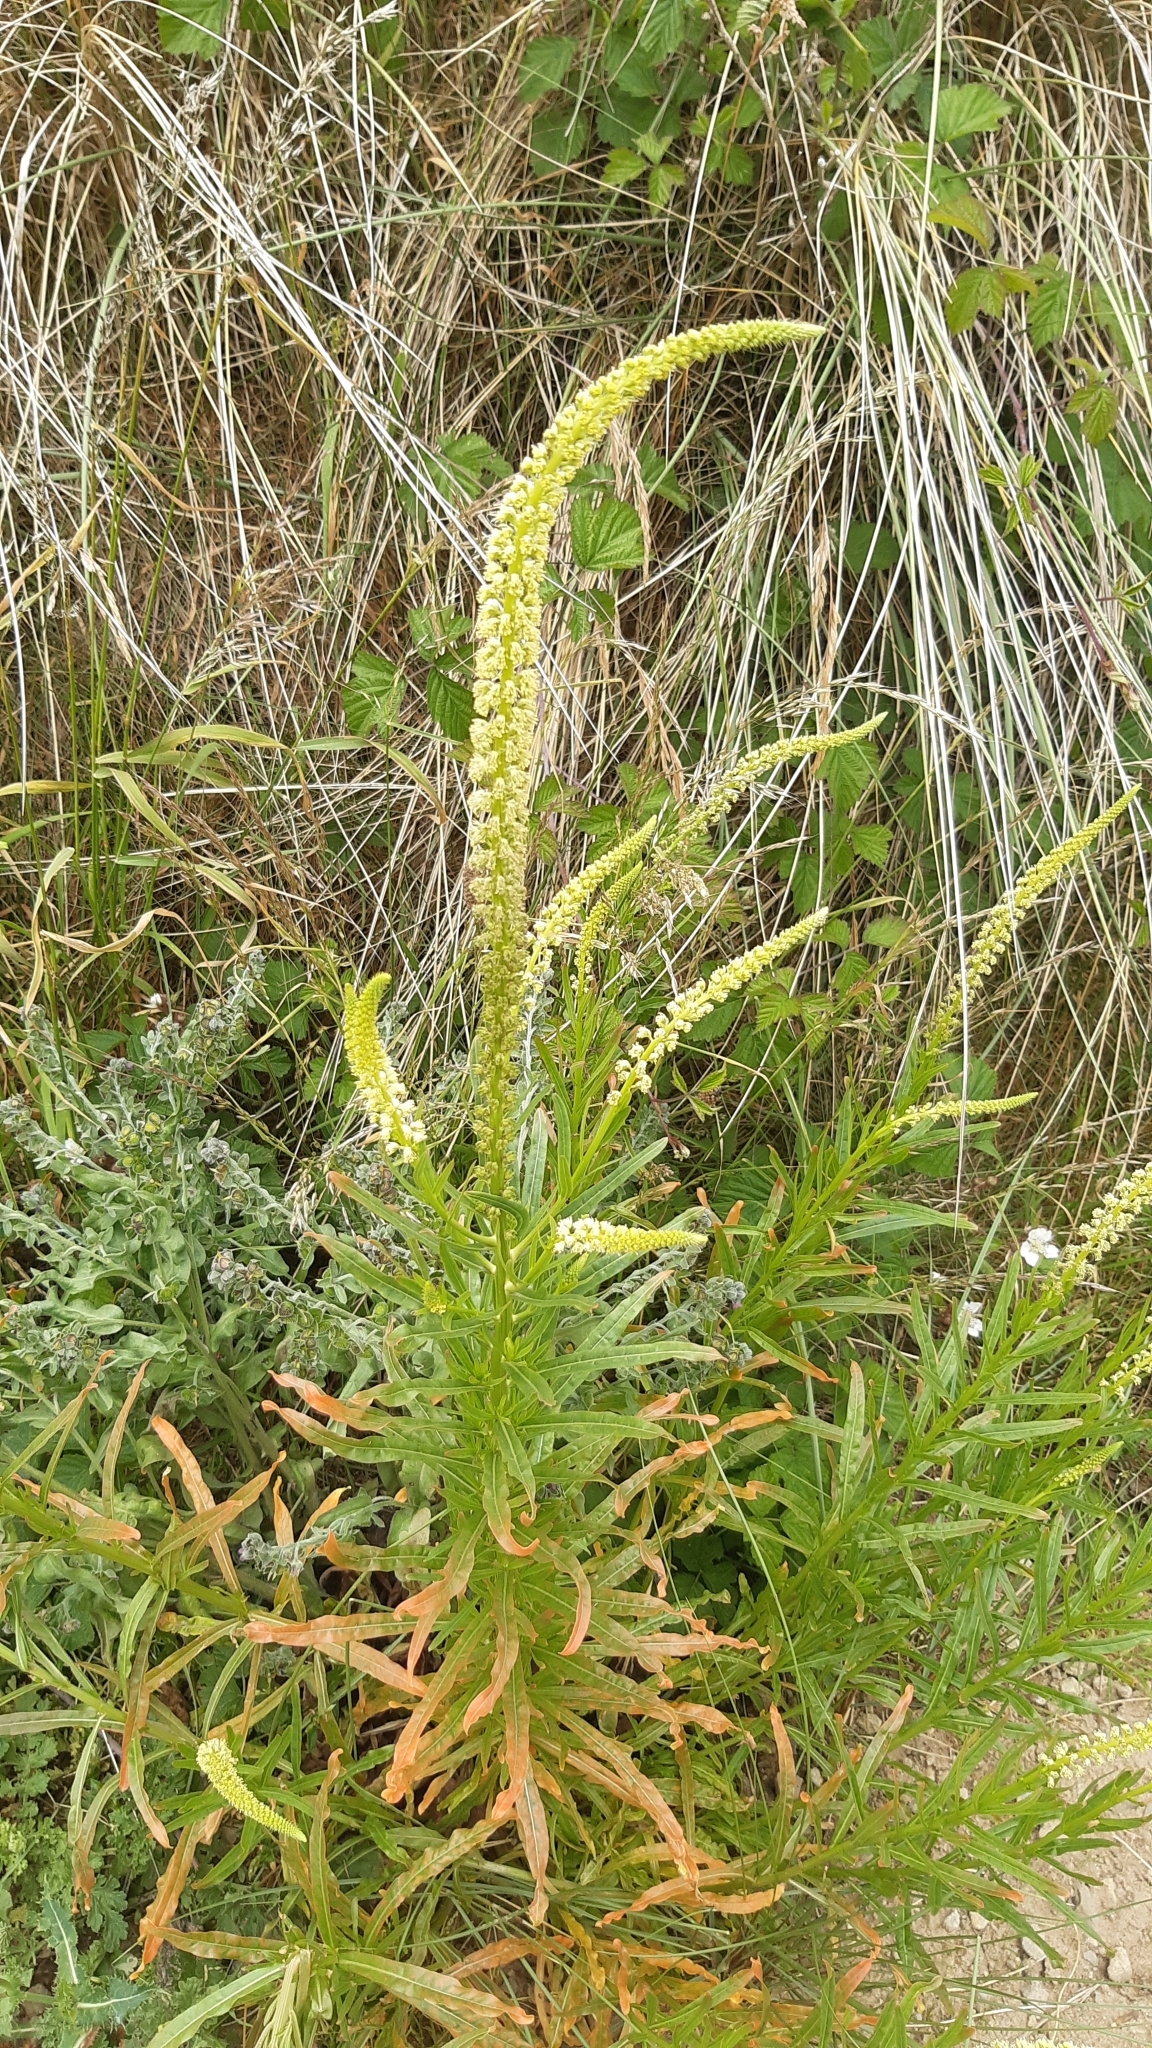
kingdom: Plantae
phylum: Tracheophyta
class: Magnoliopsida
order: Brassicales
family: Resedaceae
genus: Reseda
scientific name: Reseda luteola
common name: Weld
